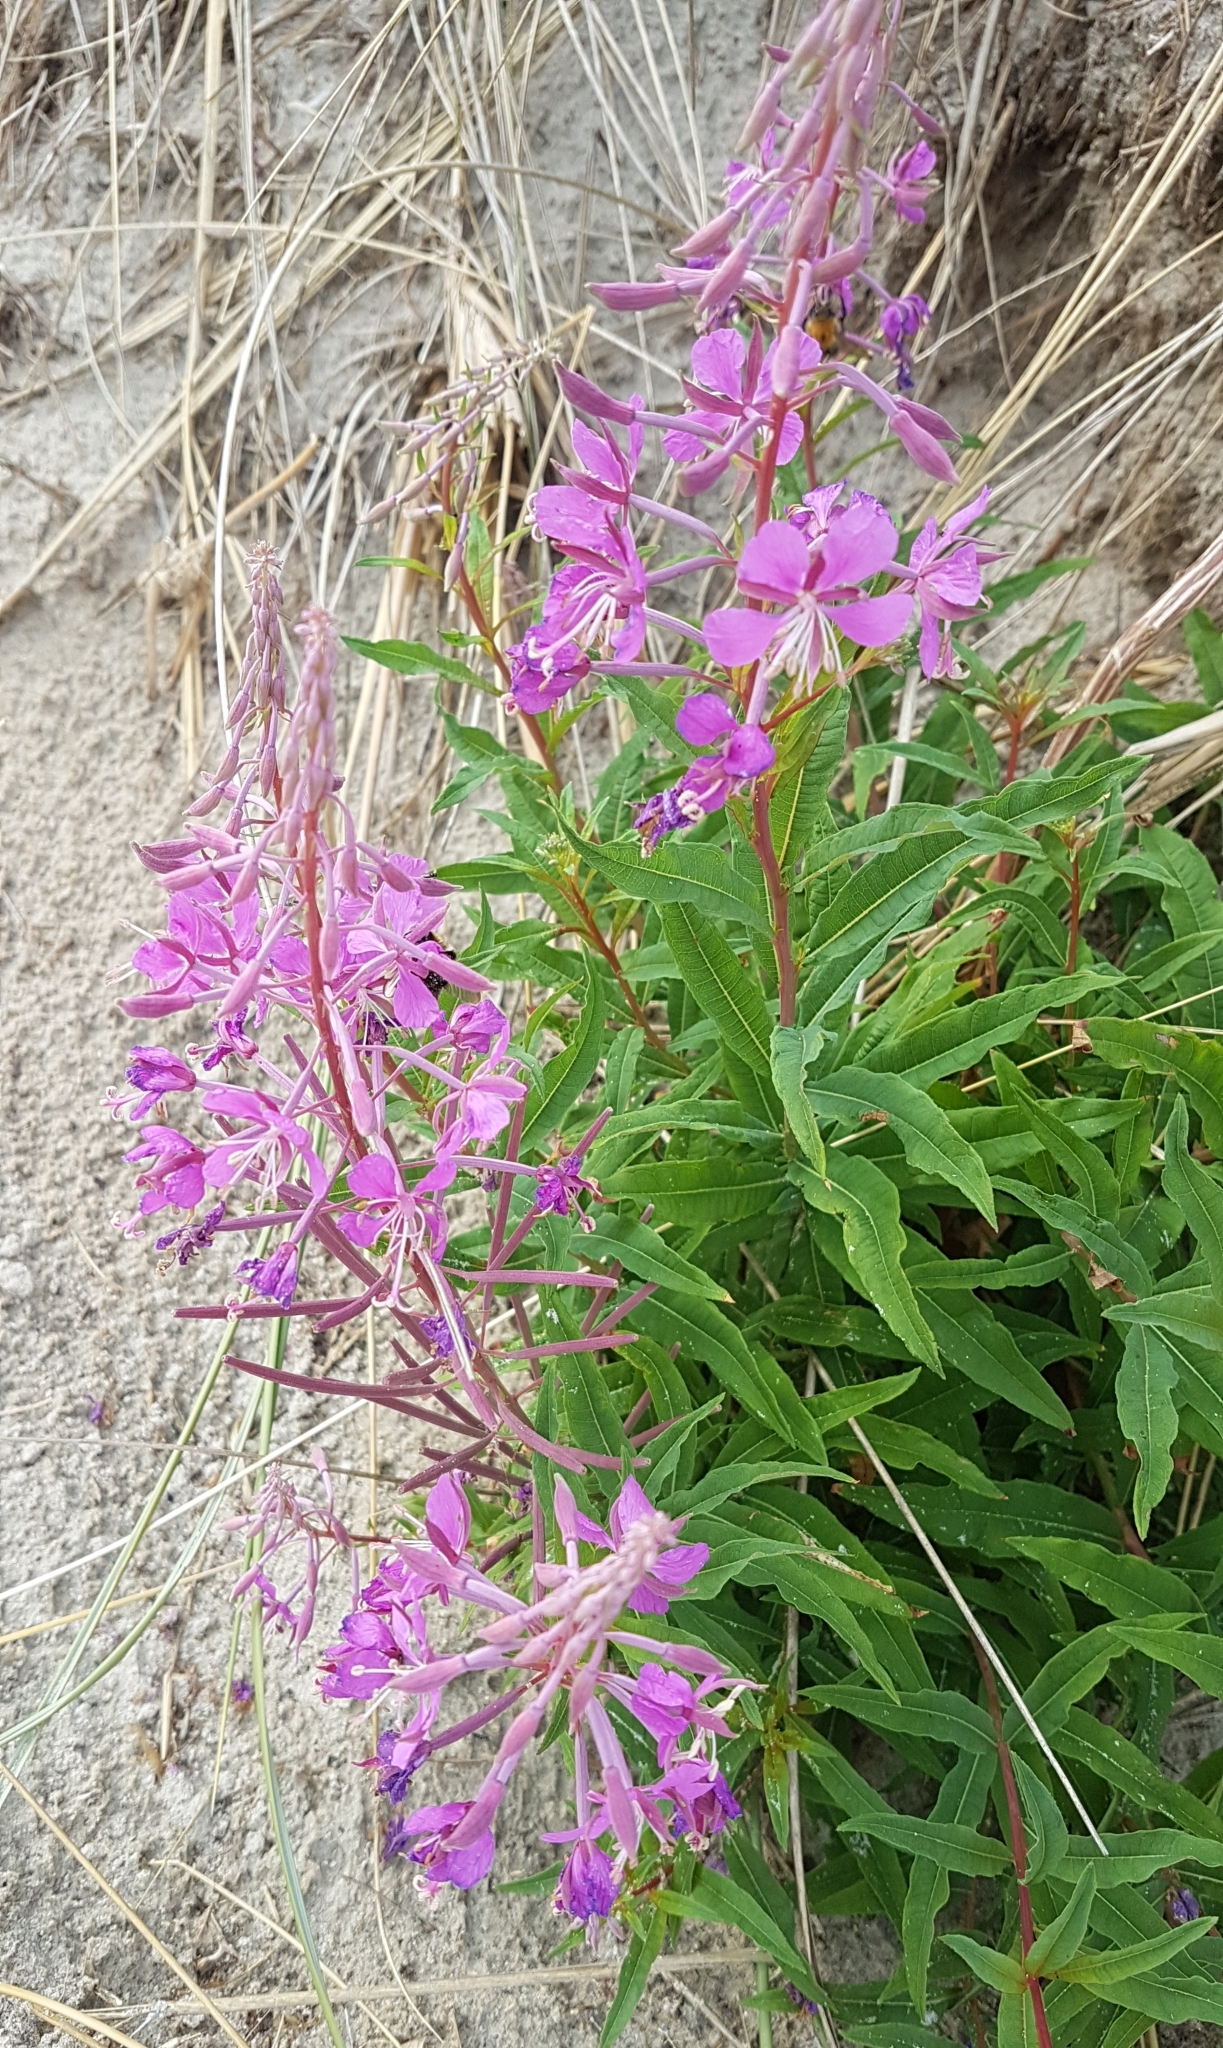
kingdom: Plantae
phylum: Tracheophyta
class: Magnoliopsida
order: Myrtales
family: Onagraceae
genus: Chamaenerion
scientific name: Chamaenerion angustifolium
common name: Fireweed
